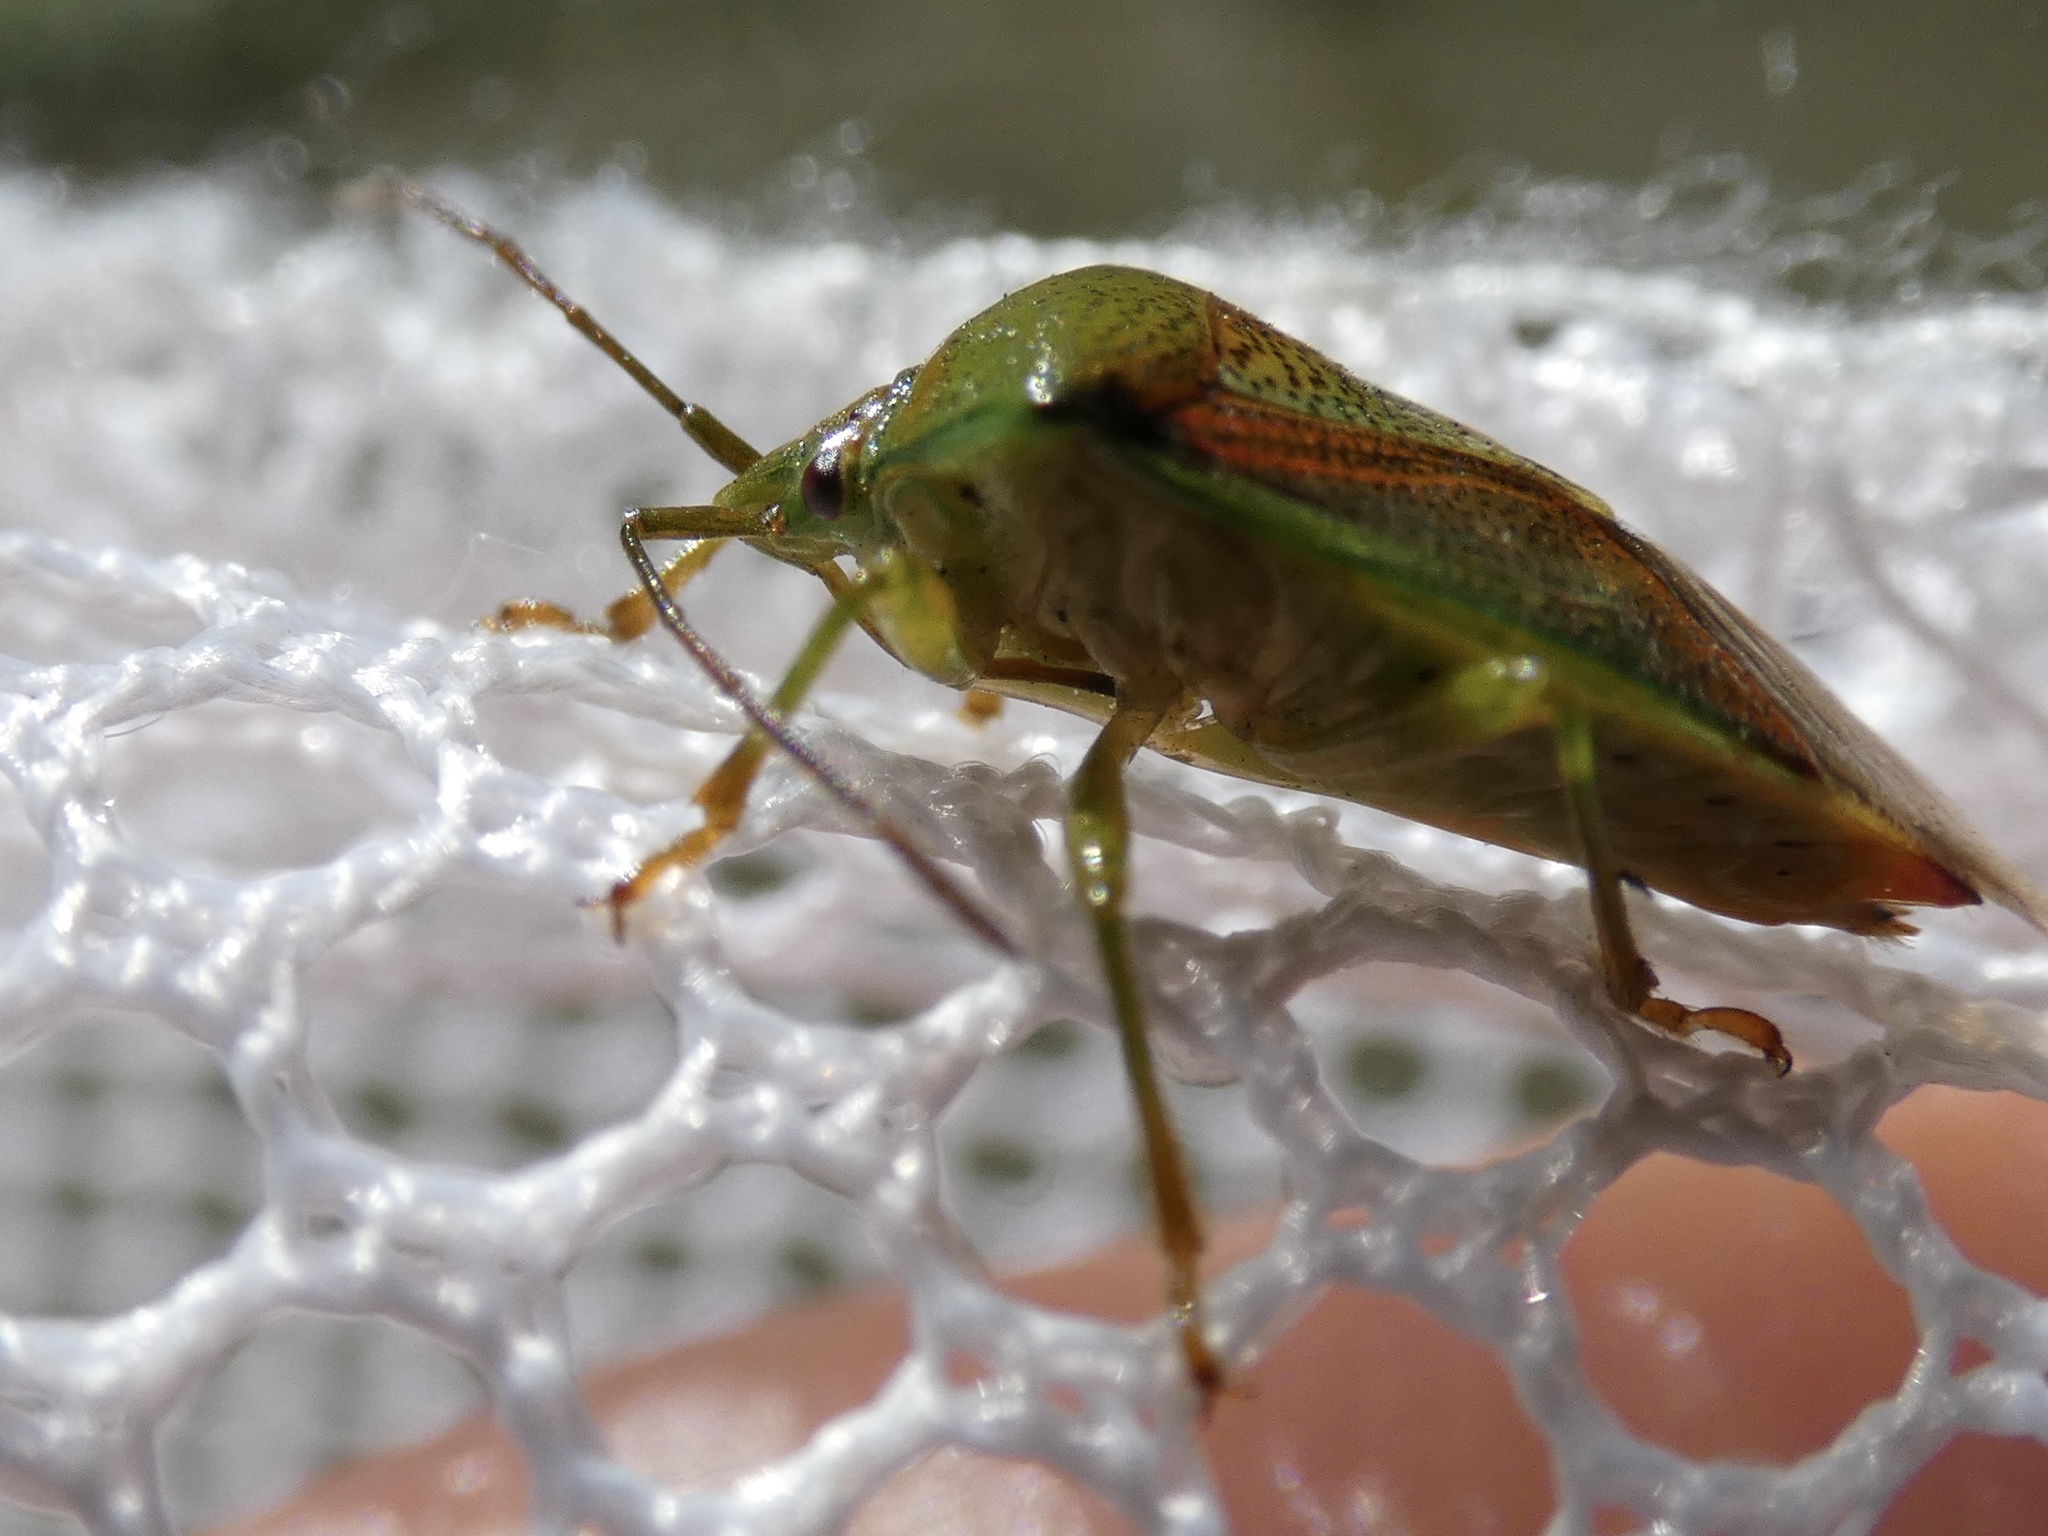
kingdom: Animalia
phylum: Arthropoda
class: Insecta
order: Hemiptera
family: Acanthosomatidae
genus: Elasmostethus
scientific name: Elasmostethus interstinctus
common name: Birch shieldbug
